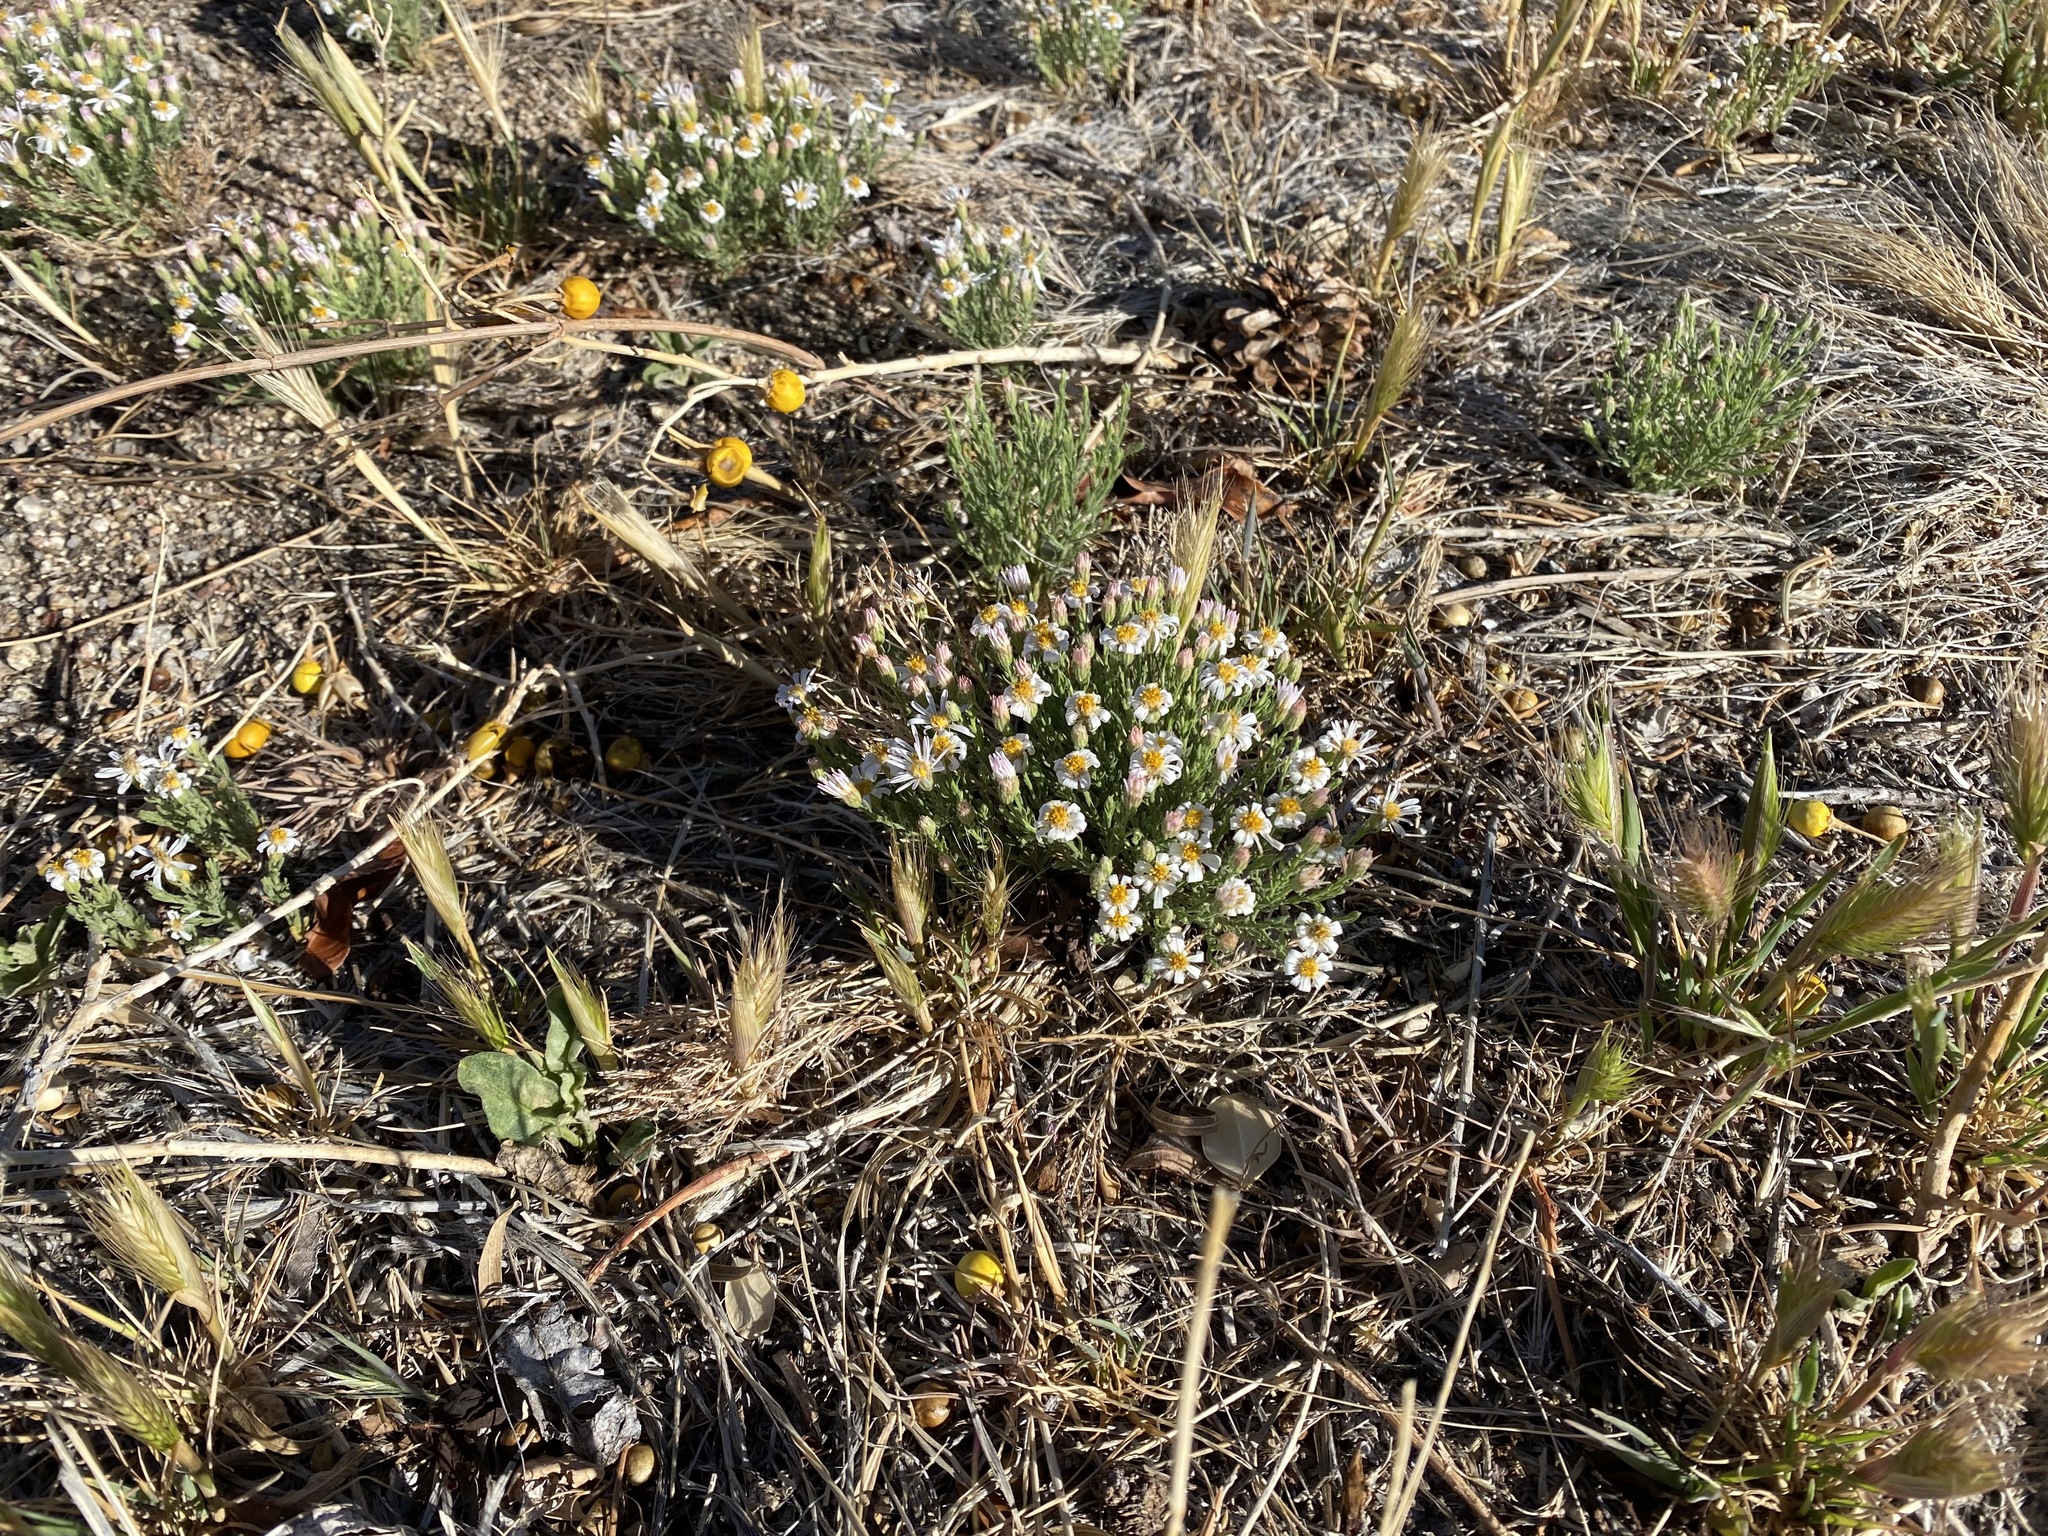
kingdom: Plantae
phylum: Tracheophyta
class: Magnoliopsida
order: Asterales
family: Asteraceae
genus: Chaetopappa
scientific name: Chaetopappa ericoides
